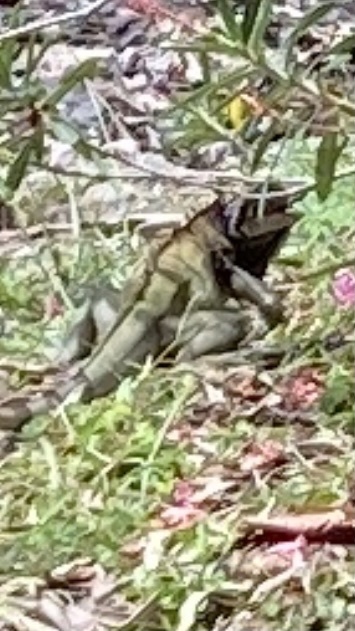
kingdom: Animalia
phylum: Chordata
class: Squamata
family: Iguanidae
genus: Iguana
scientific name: Iguana iguana
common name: Green iguana
